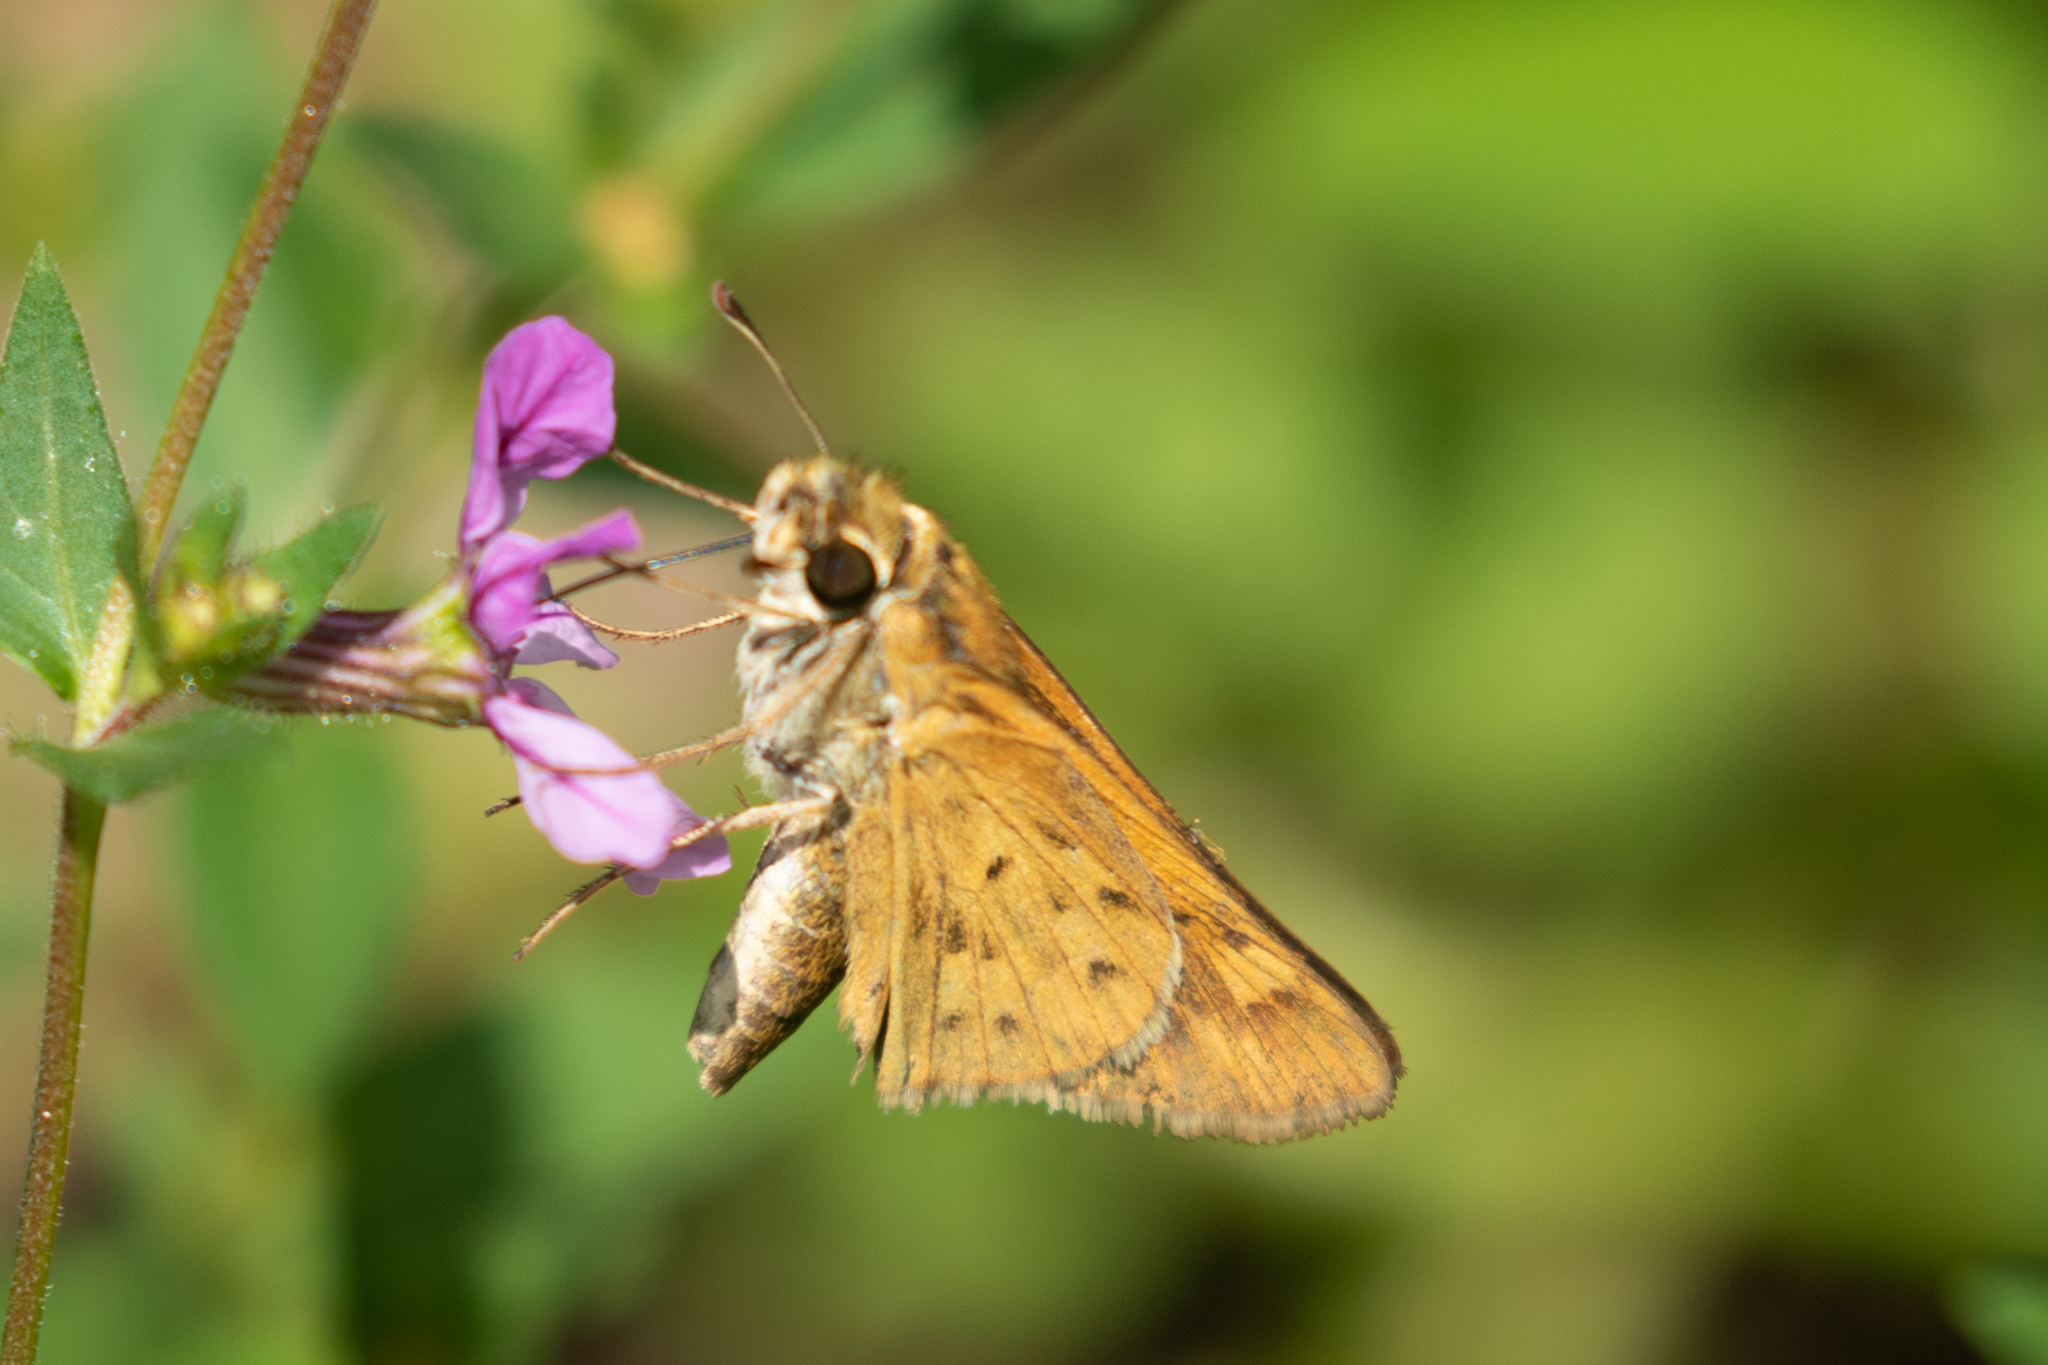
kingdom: Animalia
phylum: Arthropoda
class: Insecta
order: Lepidoptera
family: Hesperiidae
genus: Hylephila
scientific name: Hylephila phyleus
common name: Fiery skipper
